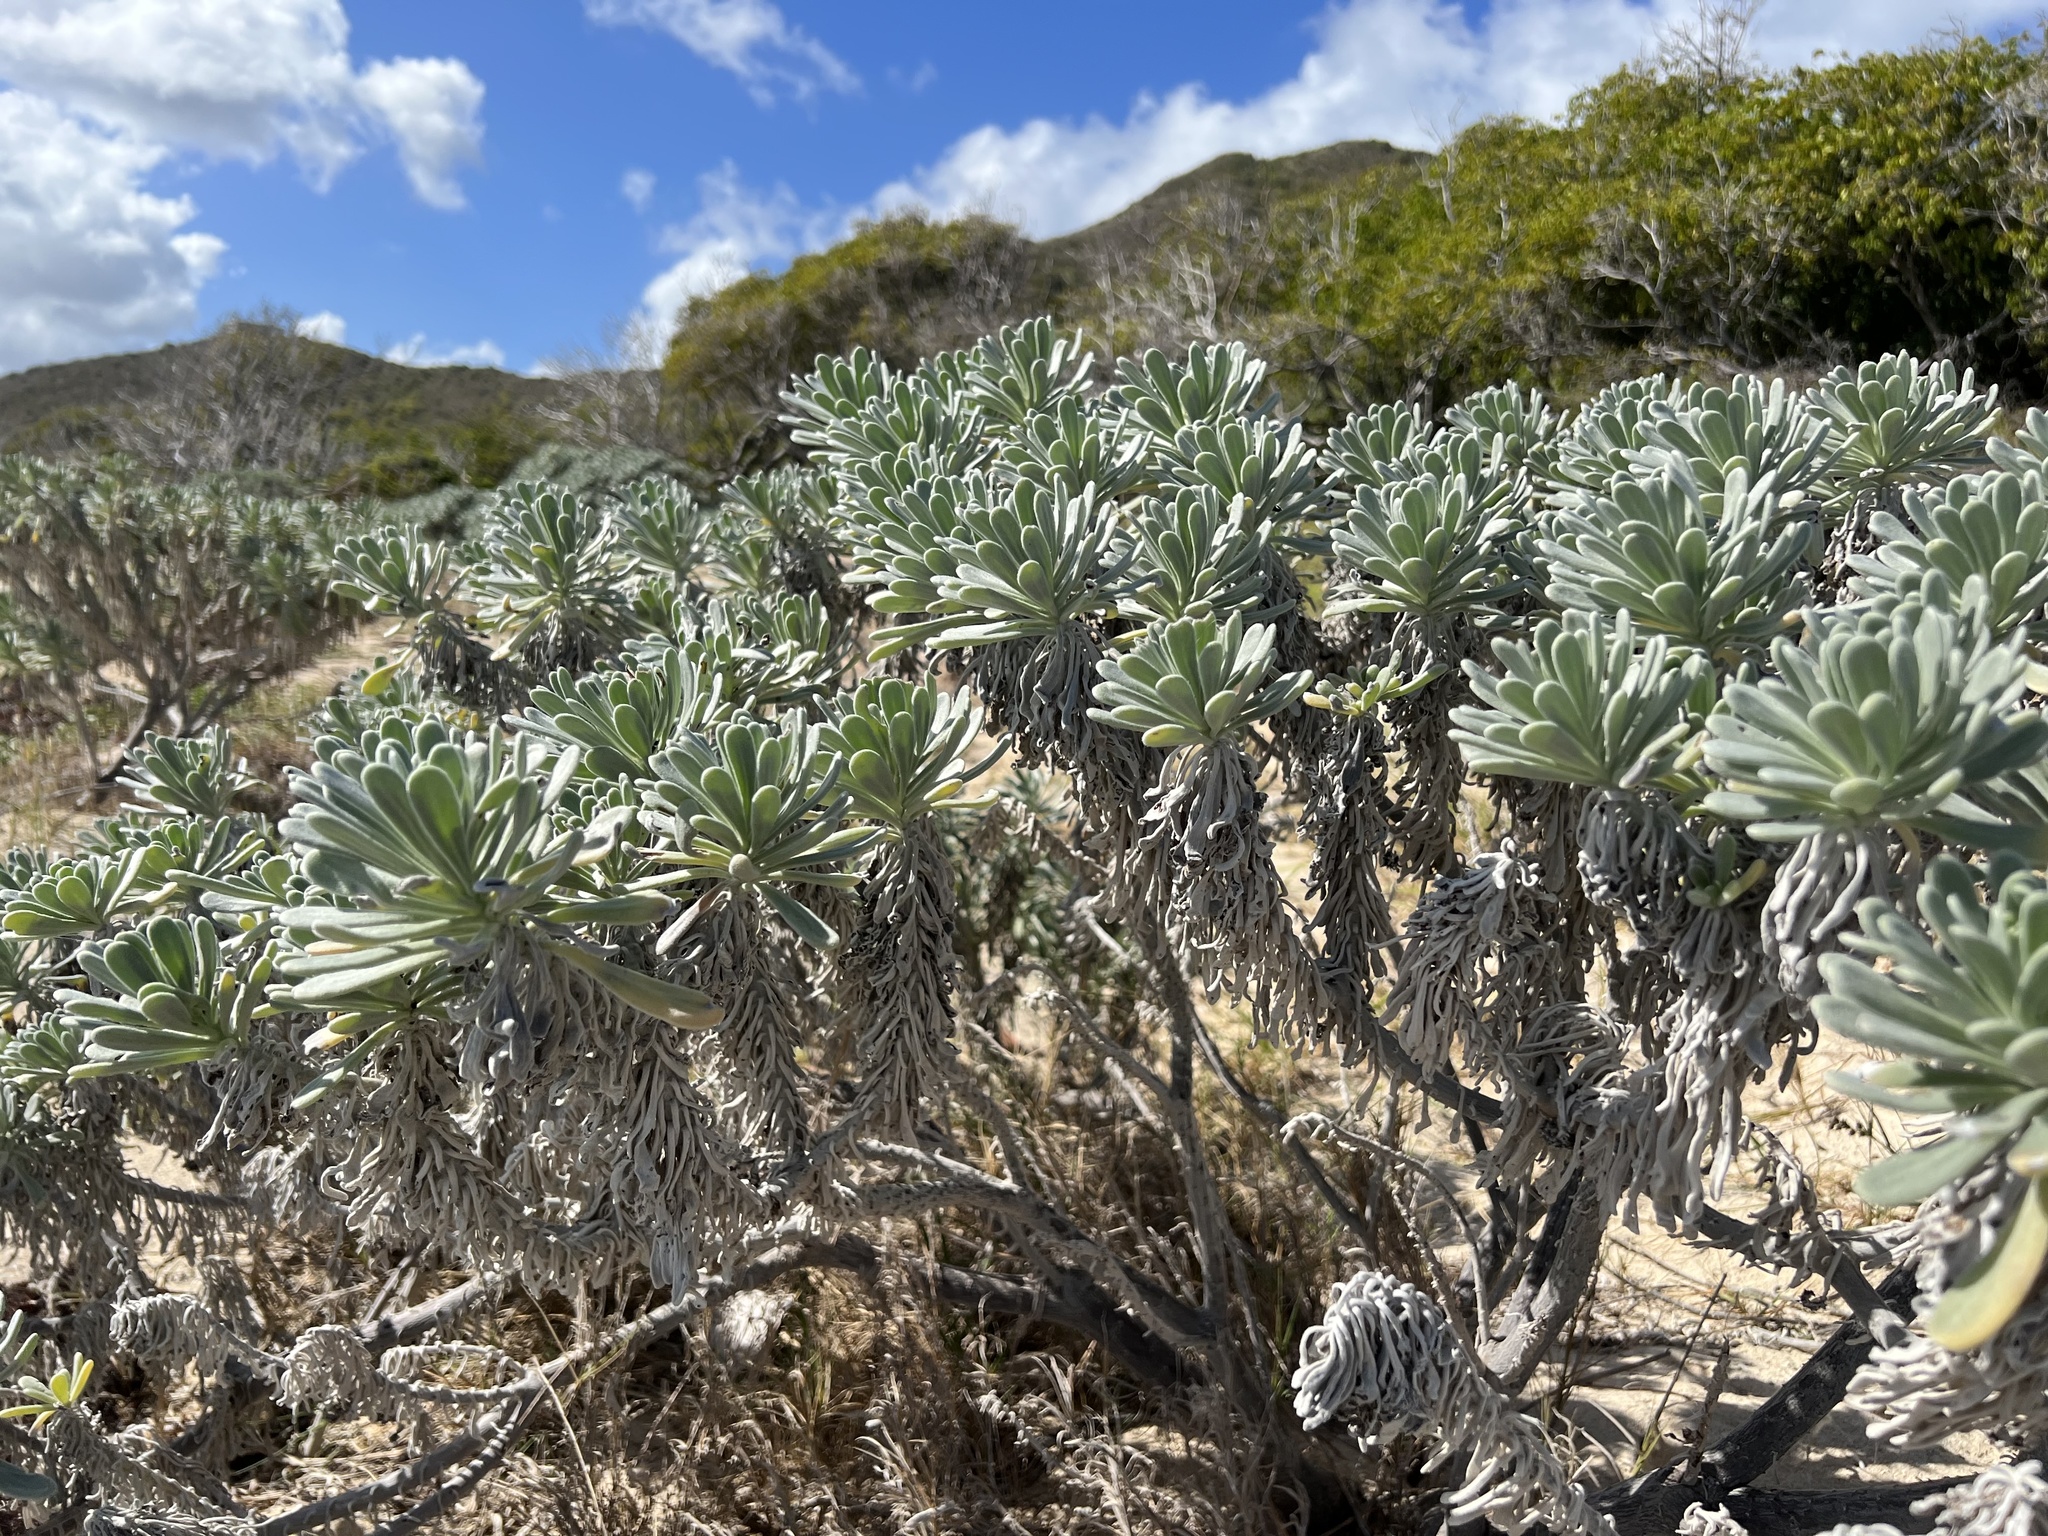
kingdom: Plantae
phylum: Tracheophyta
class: Magnoliopsida
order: Boraginales
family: Heliotropiaceae
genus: Tournefortia
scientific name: Tournefortia gnaphalodes
